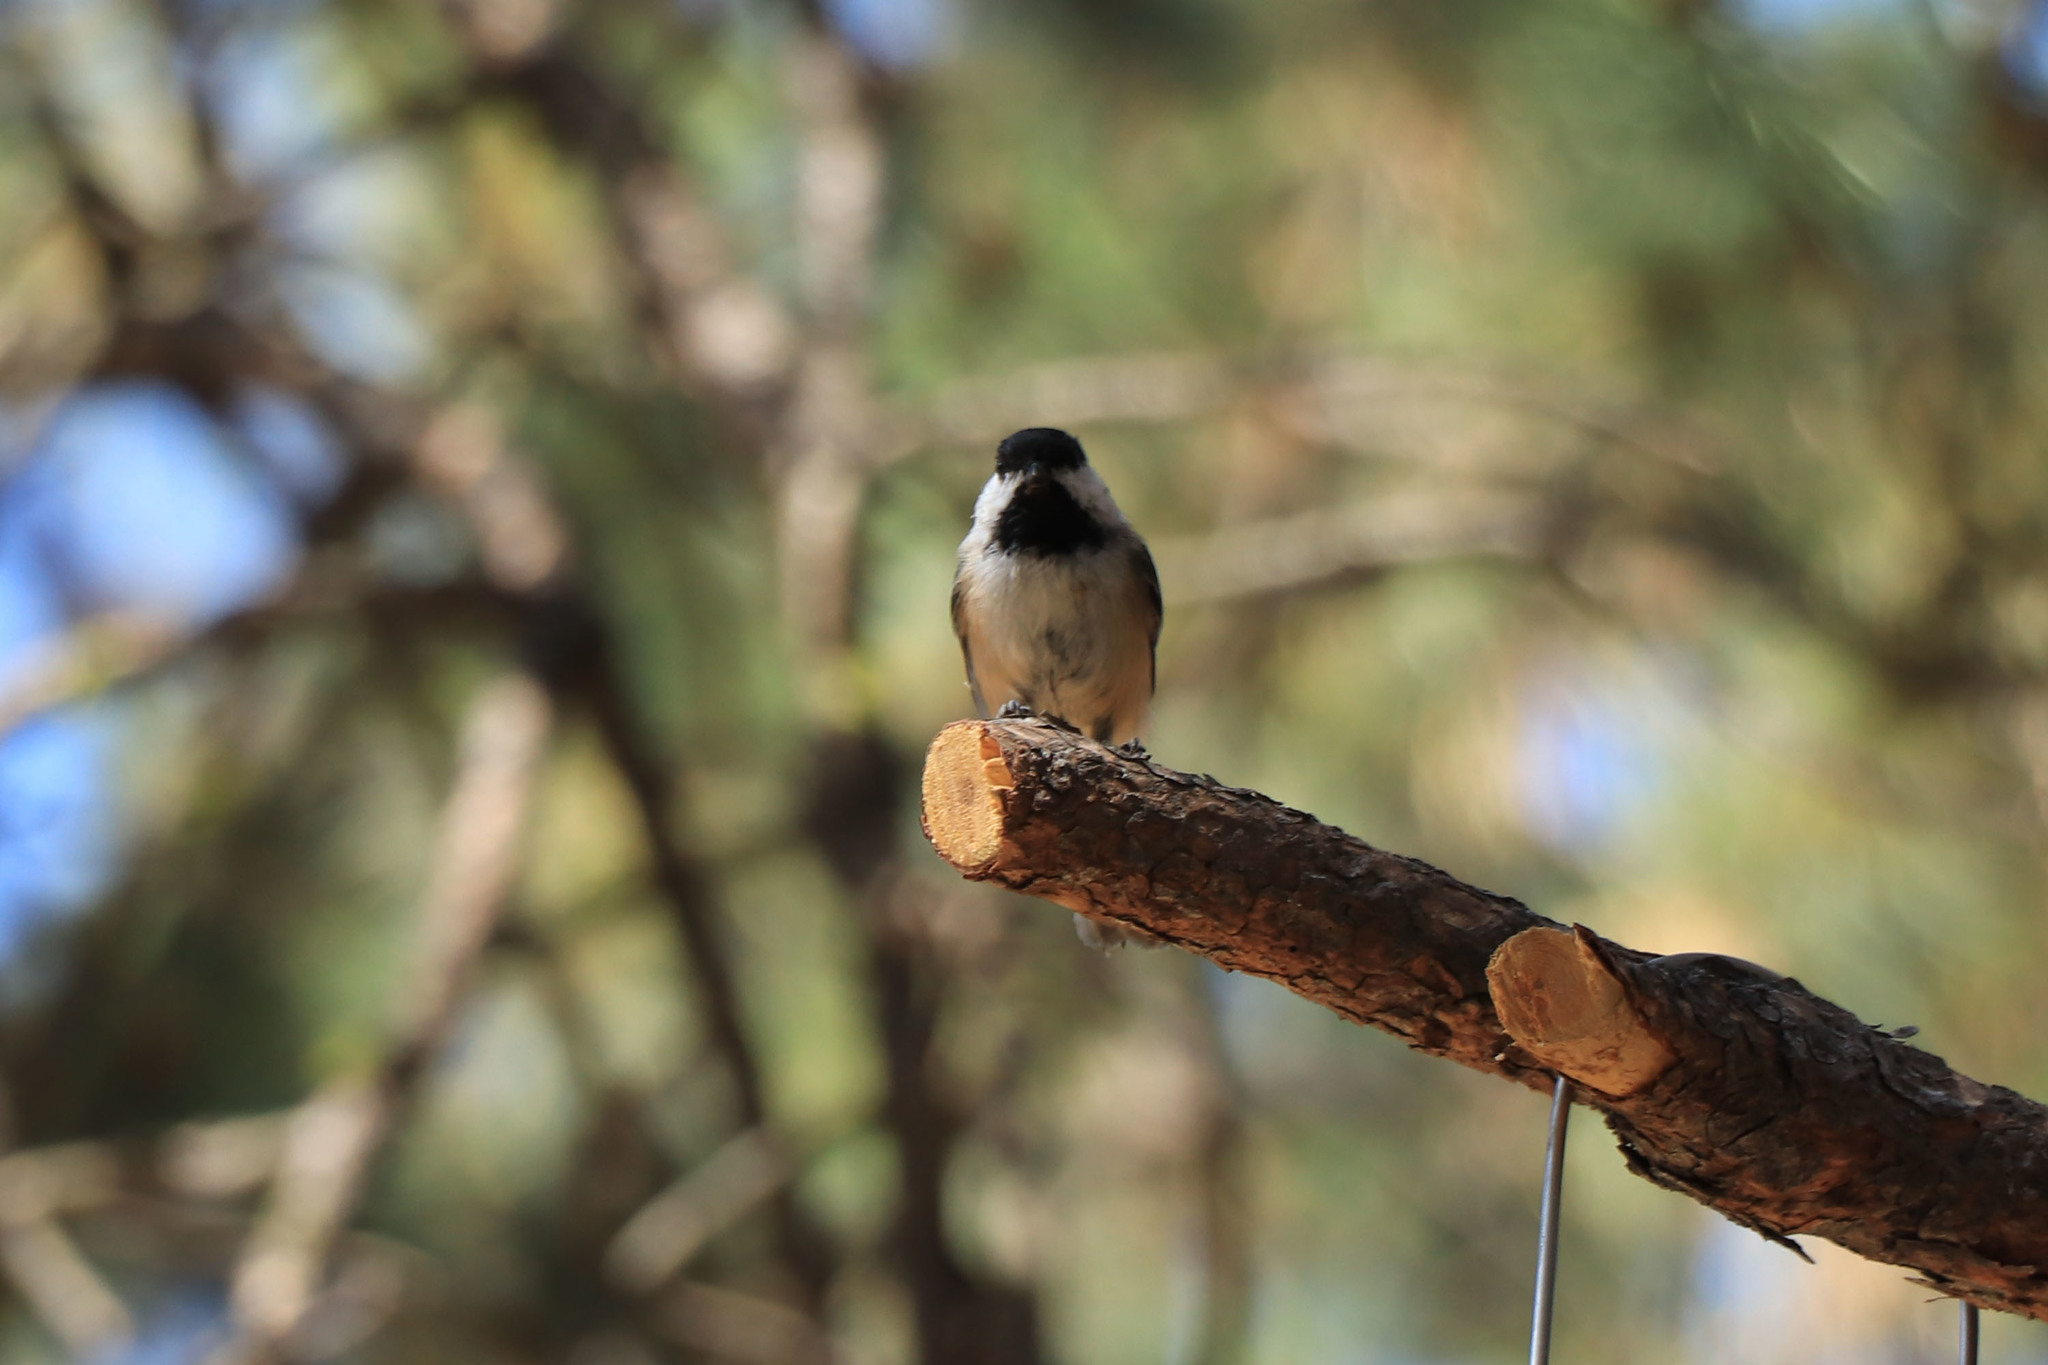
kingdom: Animalia
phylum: Chordata
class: Aves
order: Passeriformes
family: Paridae
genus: Poecile
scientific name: Poecile atricapillus
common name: Black-capped chickadee
